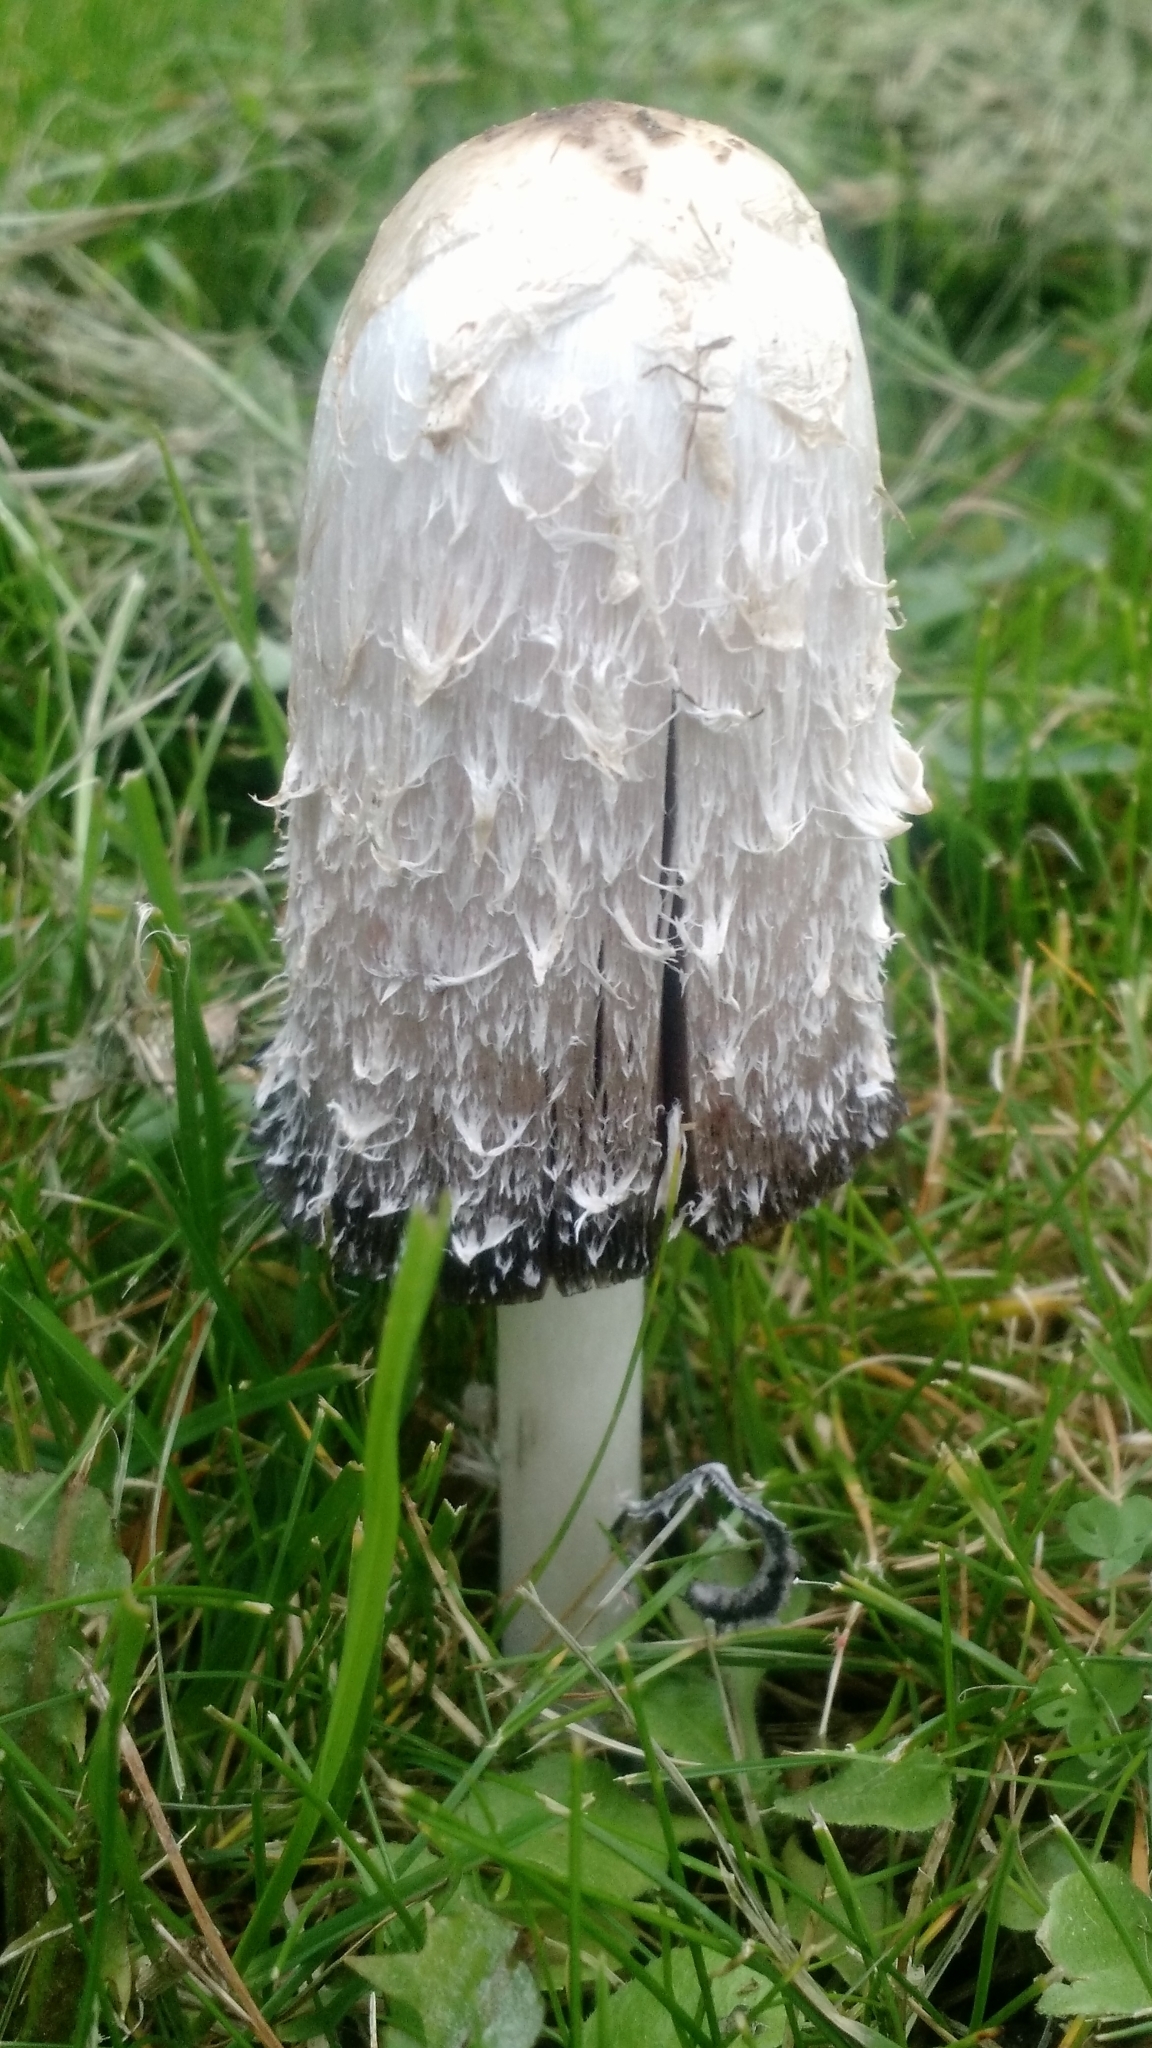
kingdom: Fungi
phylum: Basidiomycota
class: Agaricomycetes
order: Agaricales
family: Agaricaceae
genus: Coprinus
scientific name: Coprinus comatus
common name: Lawyer's wig
